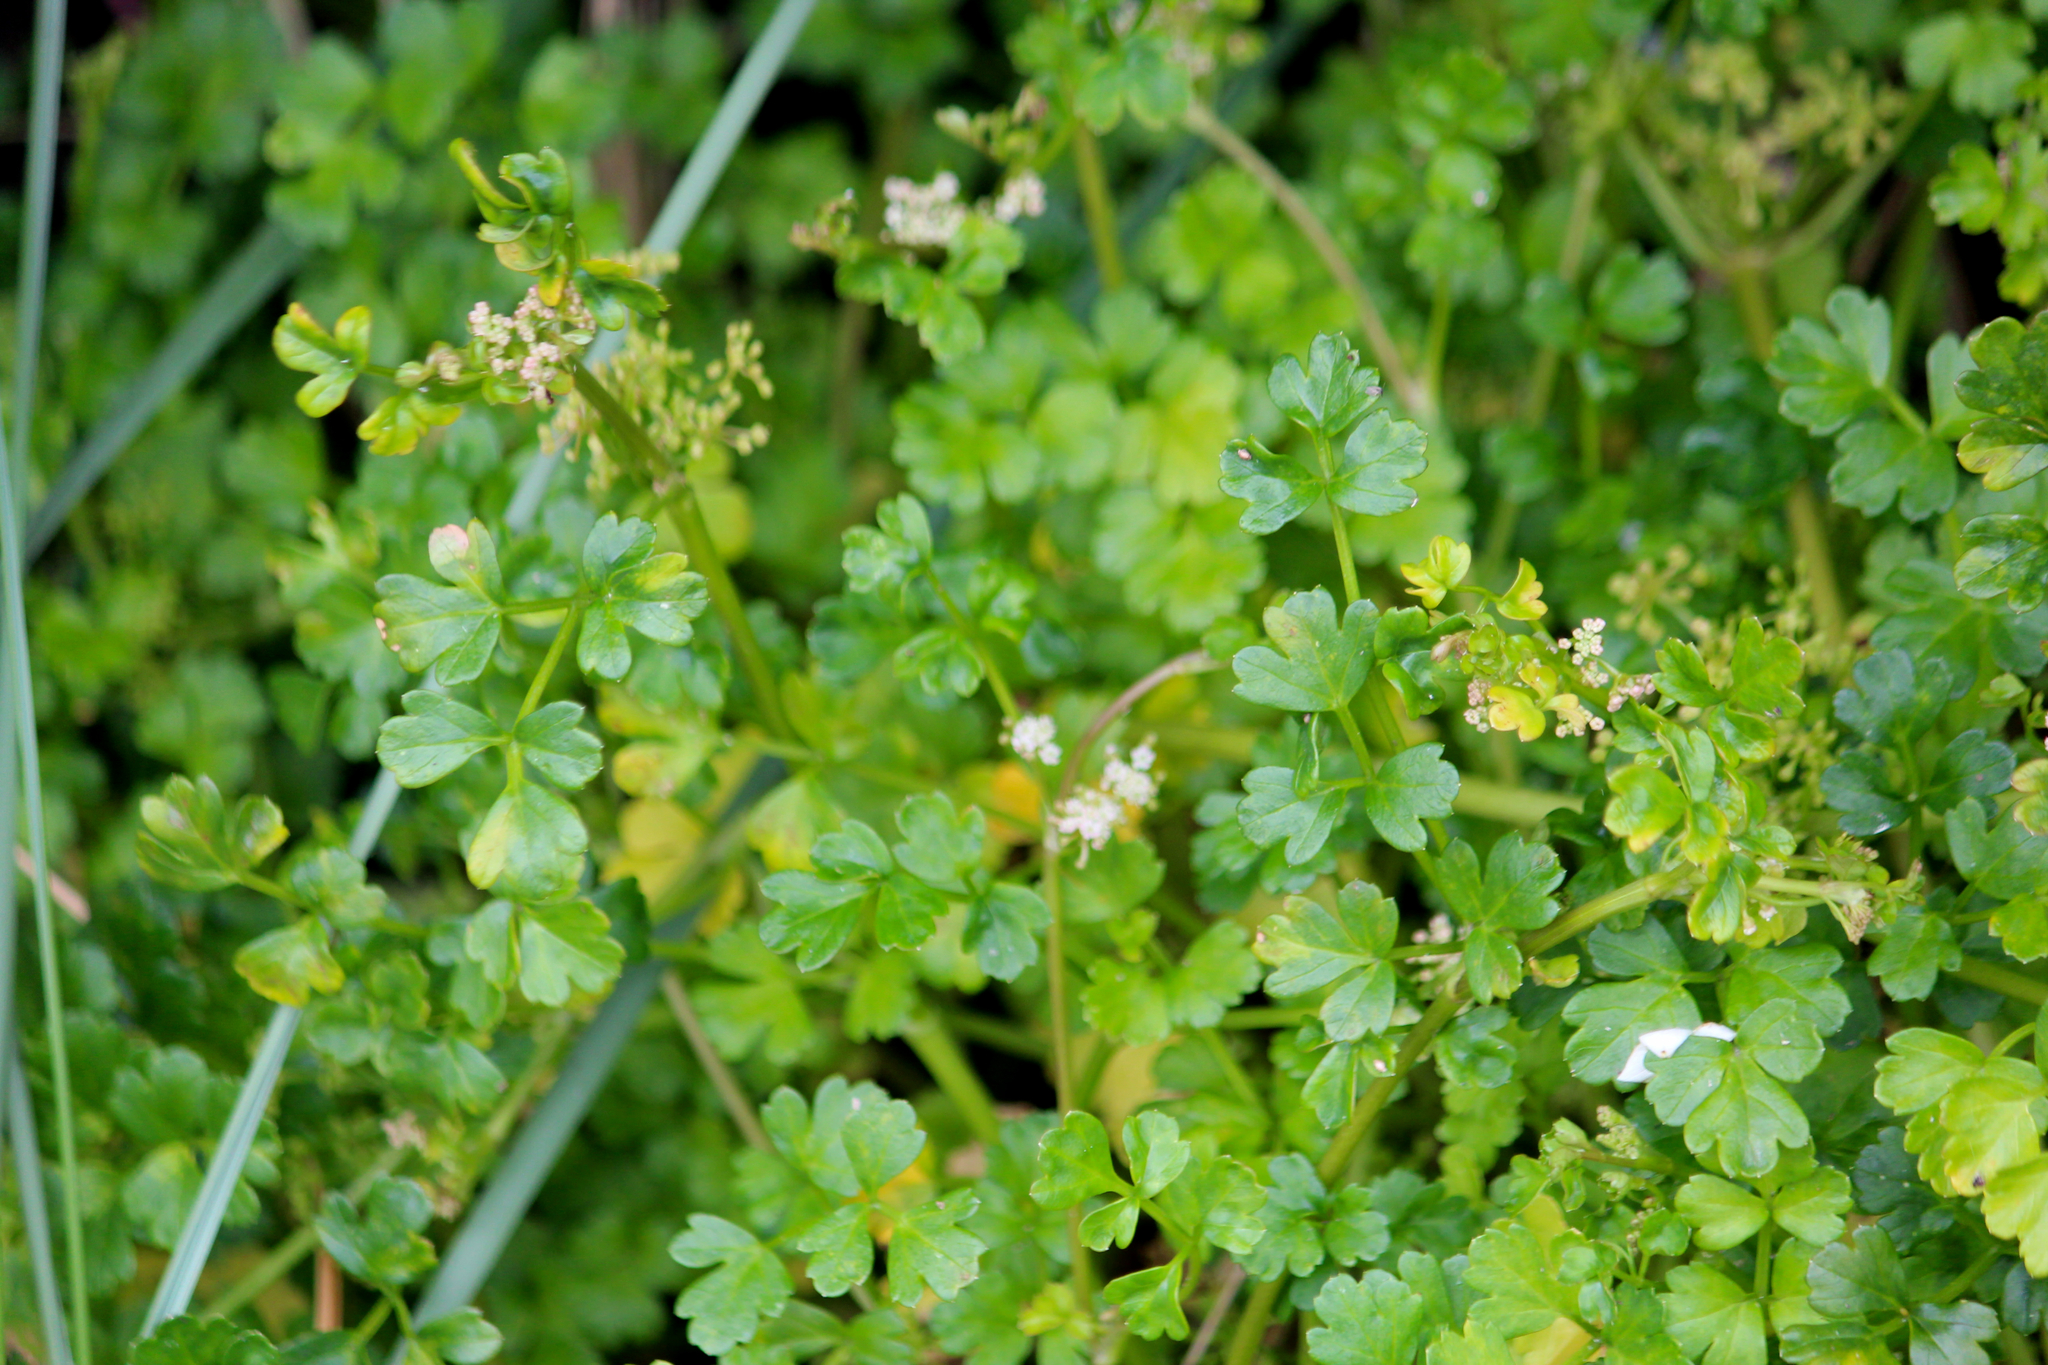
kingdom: Plantae
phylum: Tracheophyta
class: Magnoliopsida
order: Apiales
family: Apiaceae
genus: Apium
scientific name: Apium prostratum
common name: Prostrate marshwort
